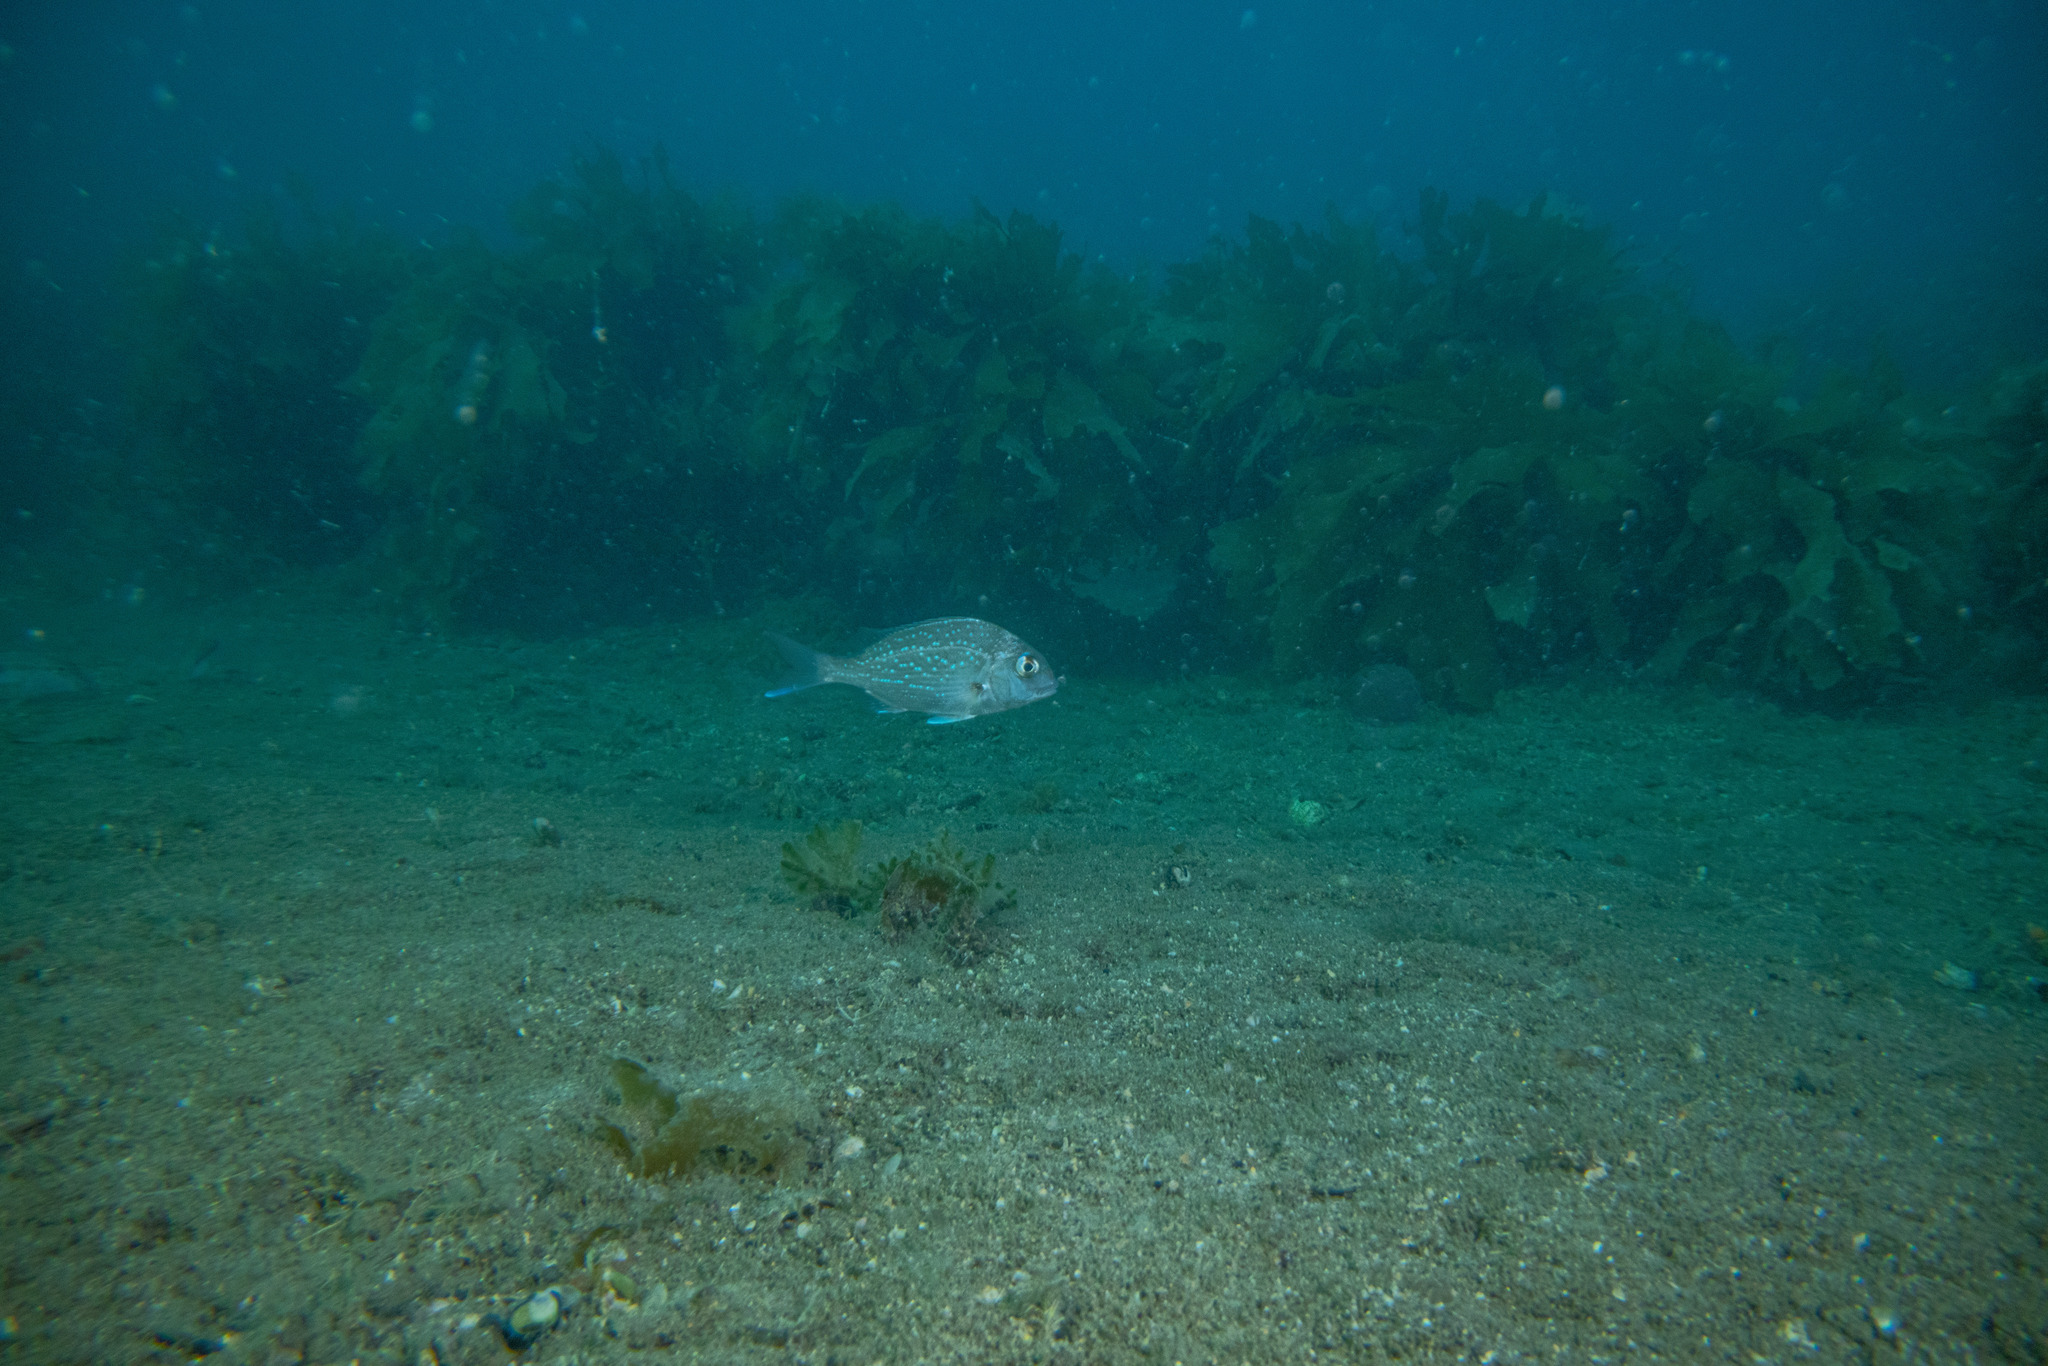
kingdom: Animalia
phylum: Chordata
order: Perciformes
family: Sparidae
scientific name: Sparidae
